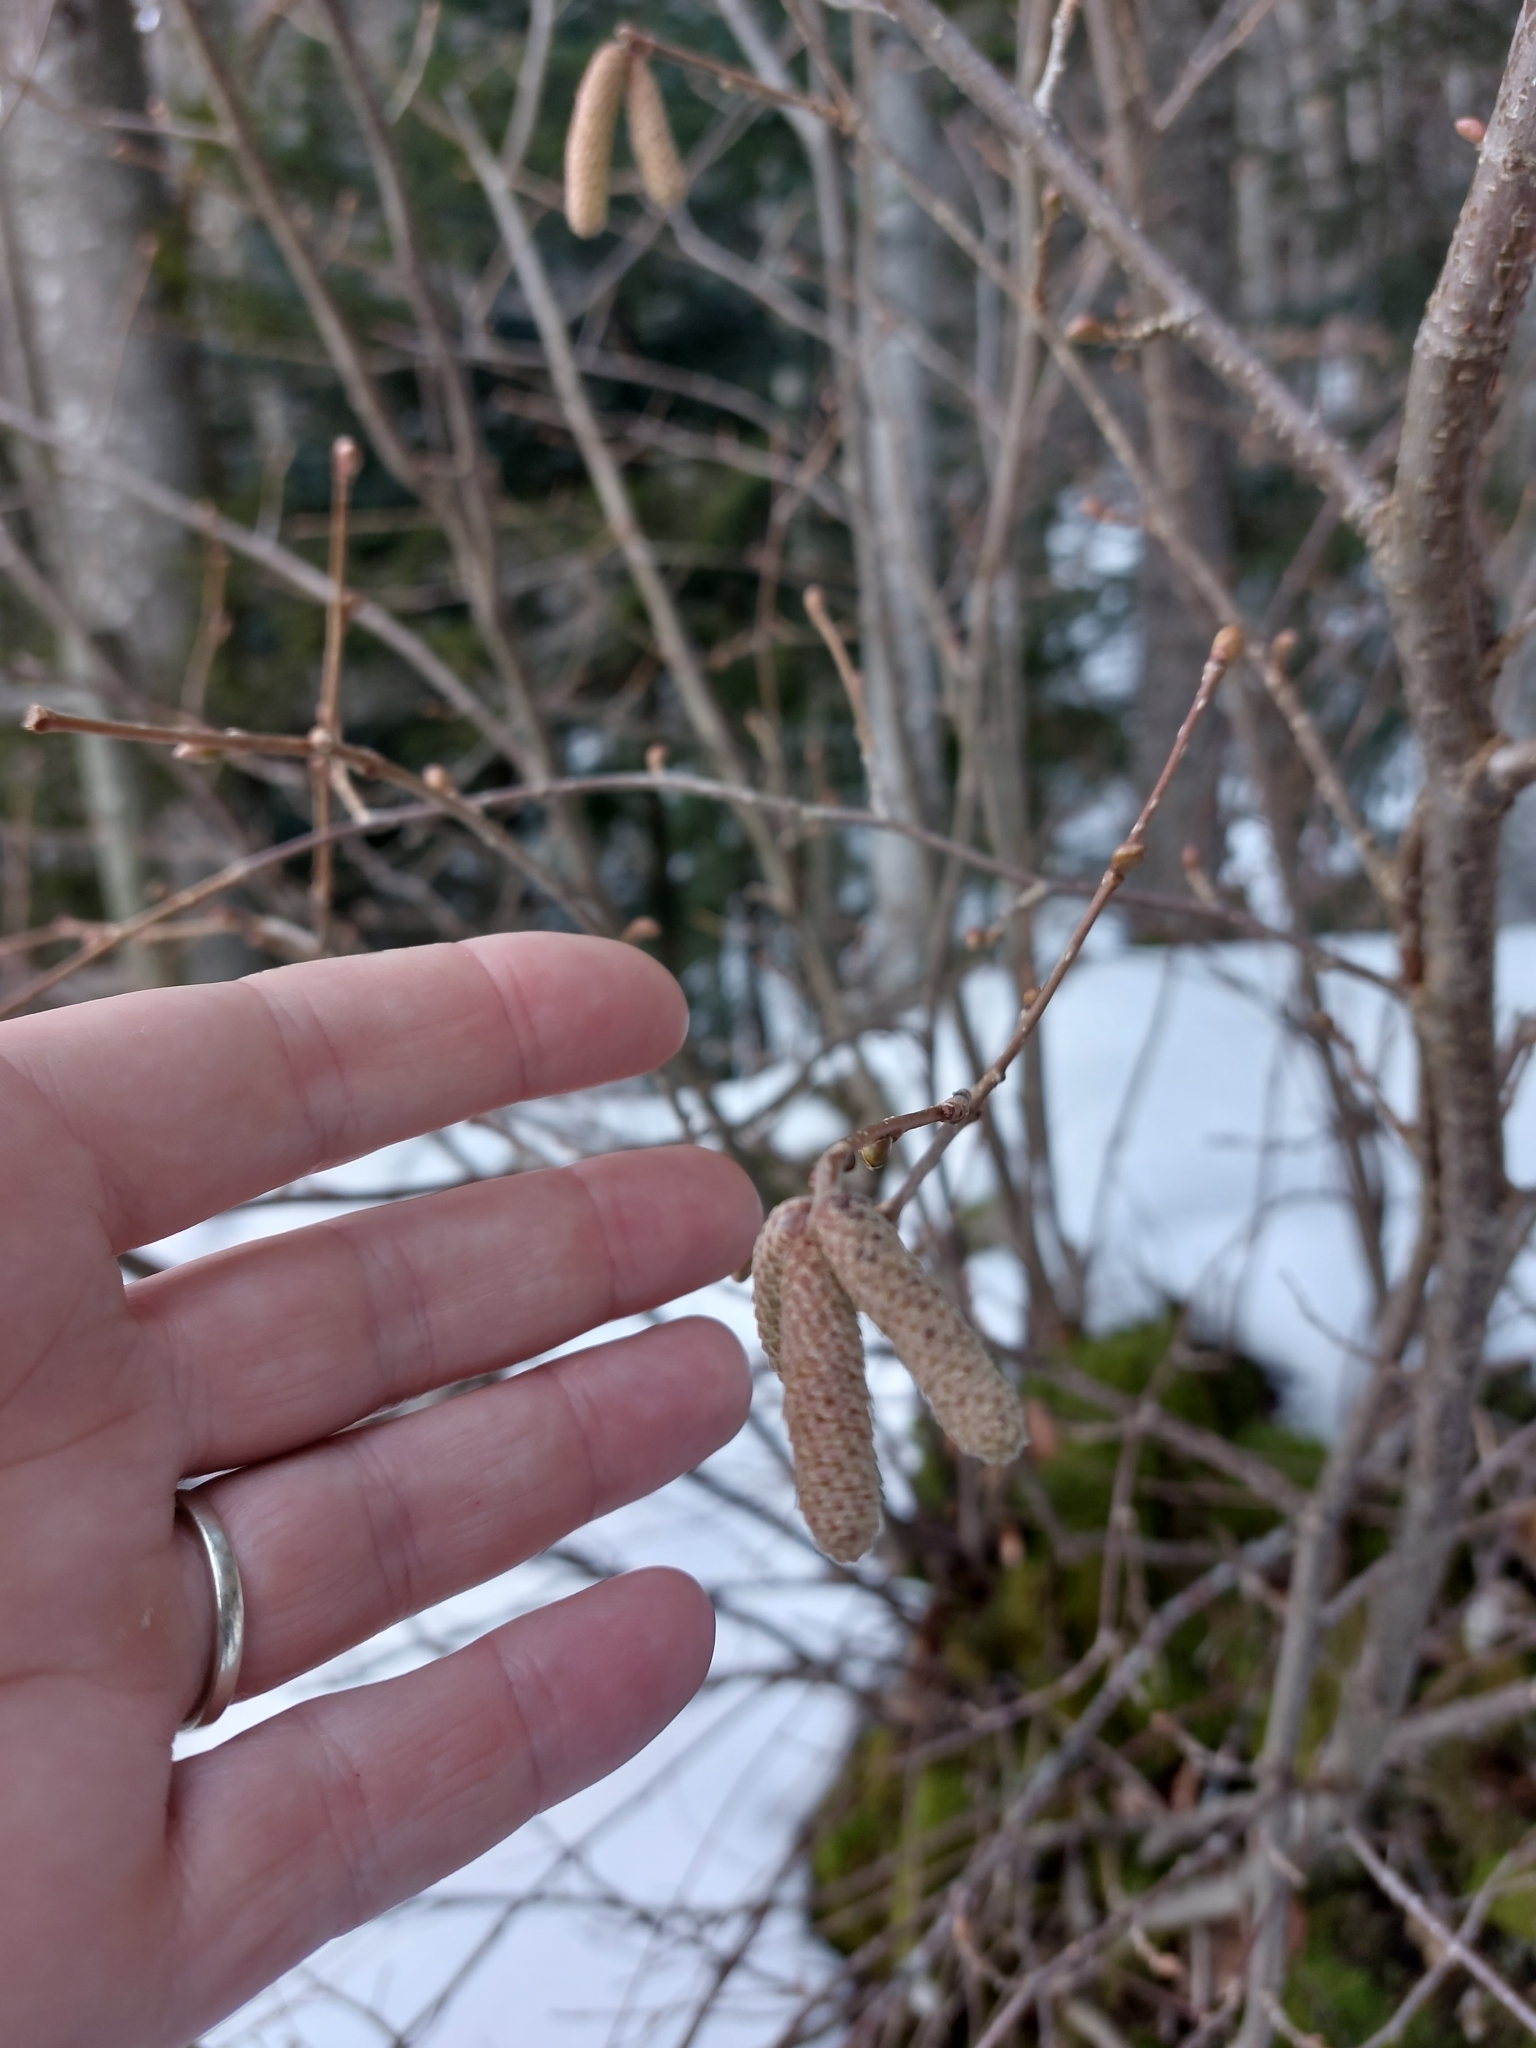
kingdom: Plantae
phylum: Tracheophyta
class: Magnoliopsida
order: Fagales
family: Betulaceae
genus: Corylus
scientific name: Corylus avellana
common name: European hazel
